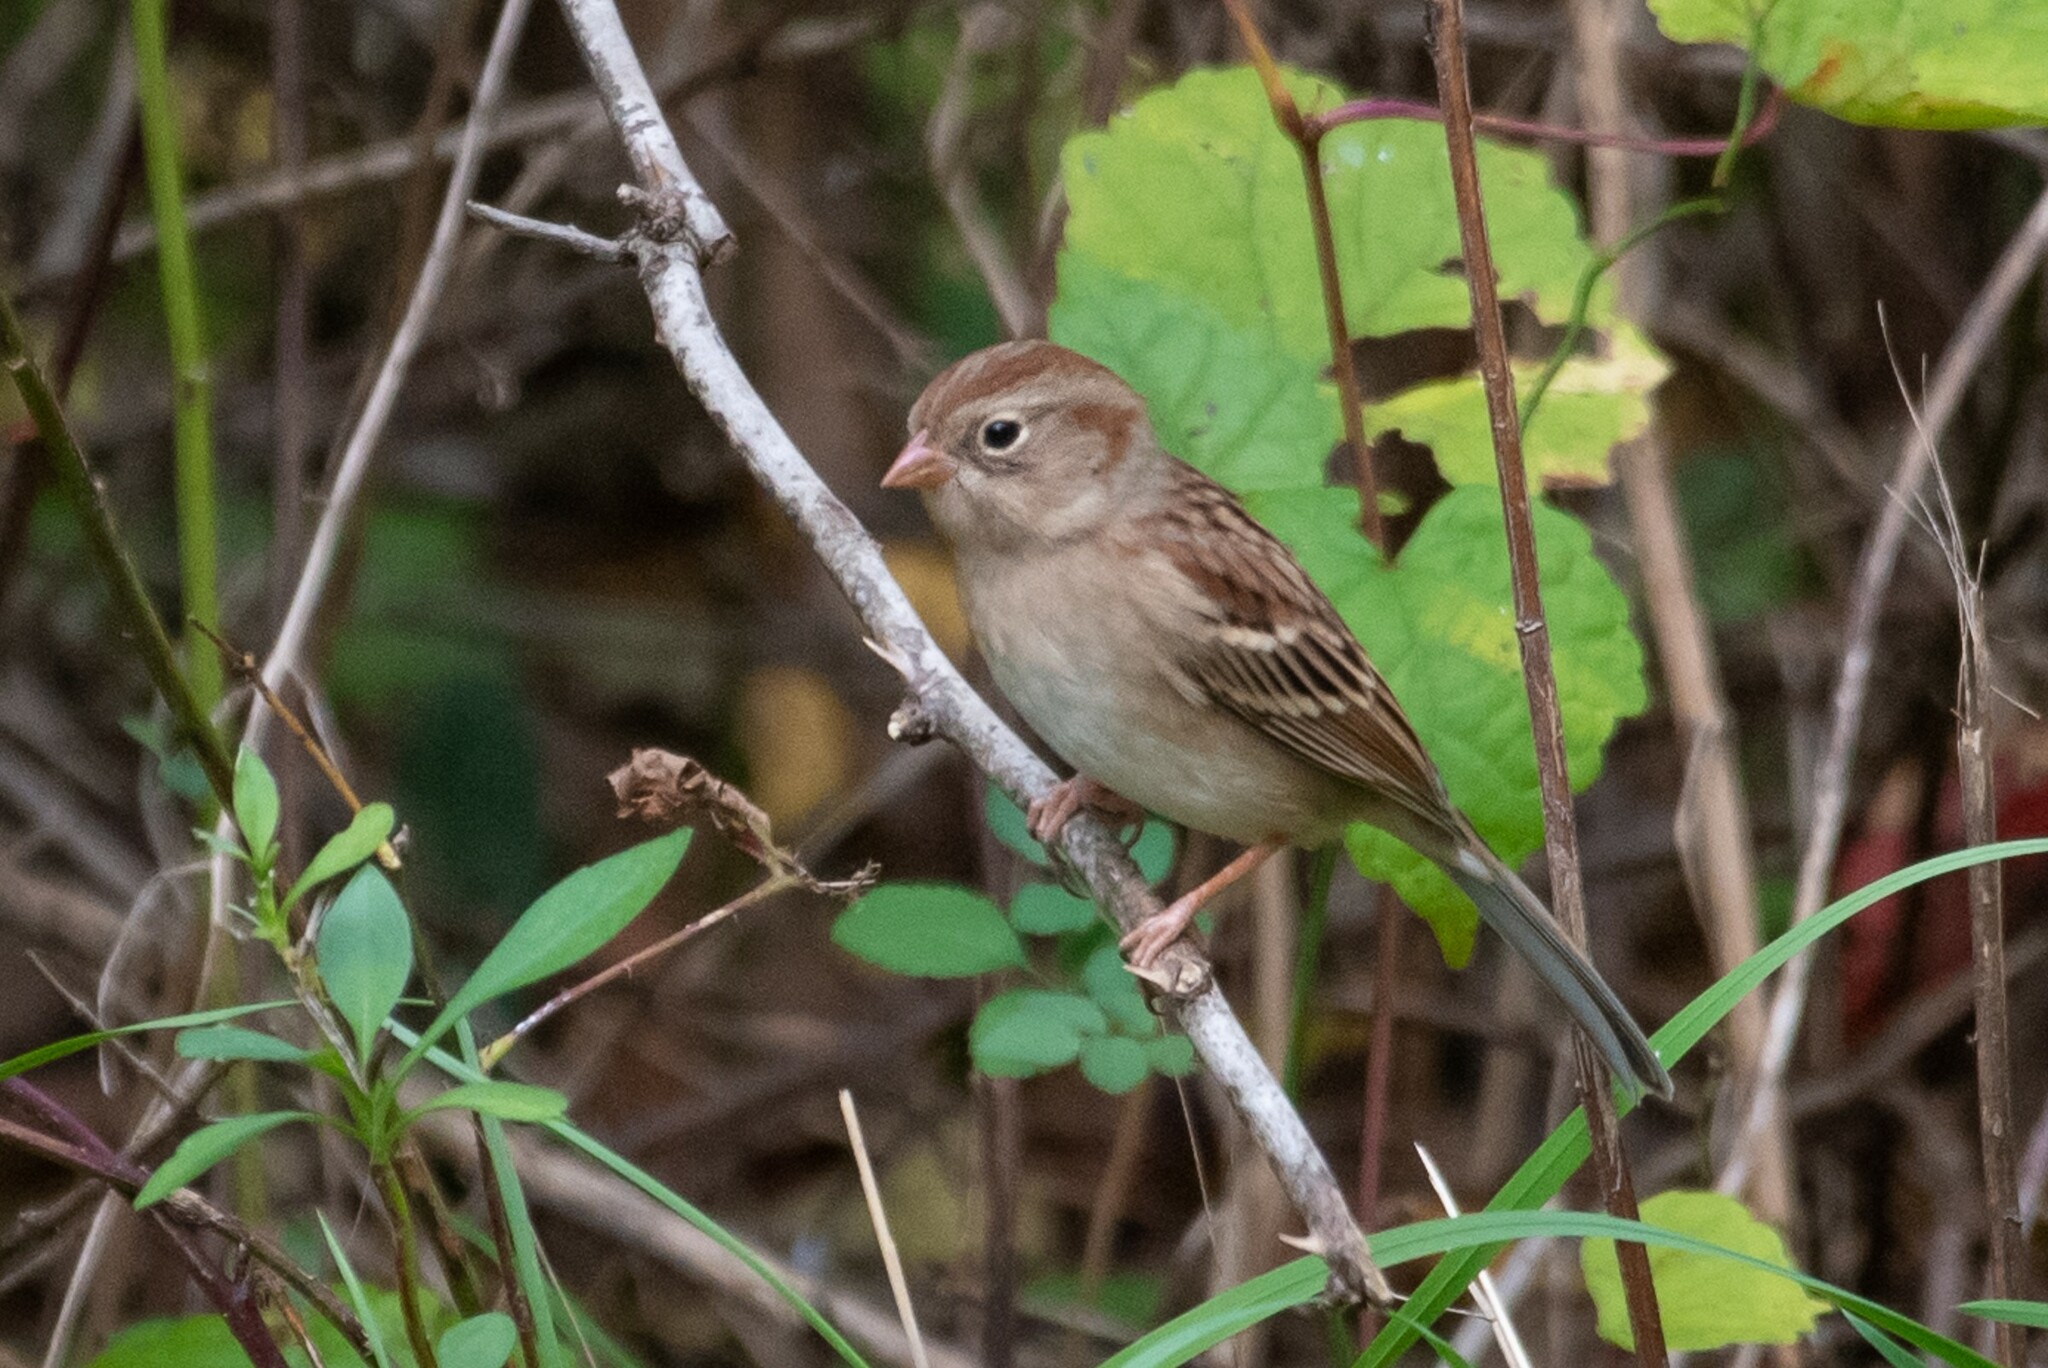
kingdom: Animalia
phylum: Chordata
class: Aves
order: Passeriformes
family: Passerellidae
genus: Spizella
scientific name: Spizella pusilla
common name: Field sparrow
